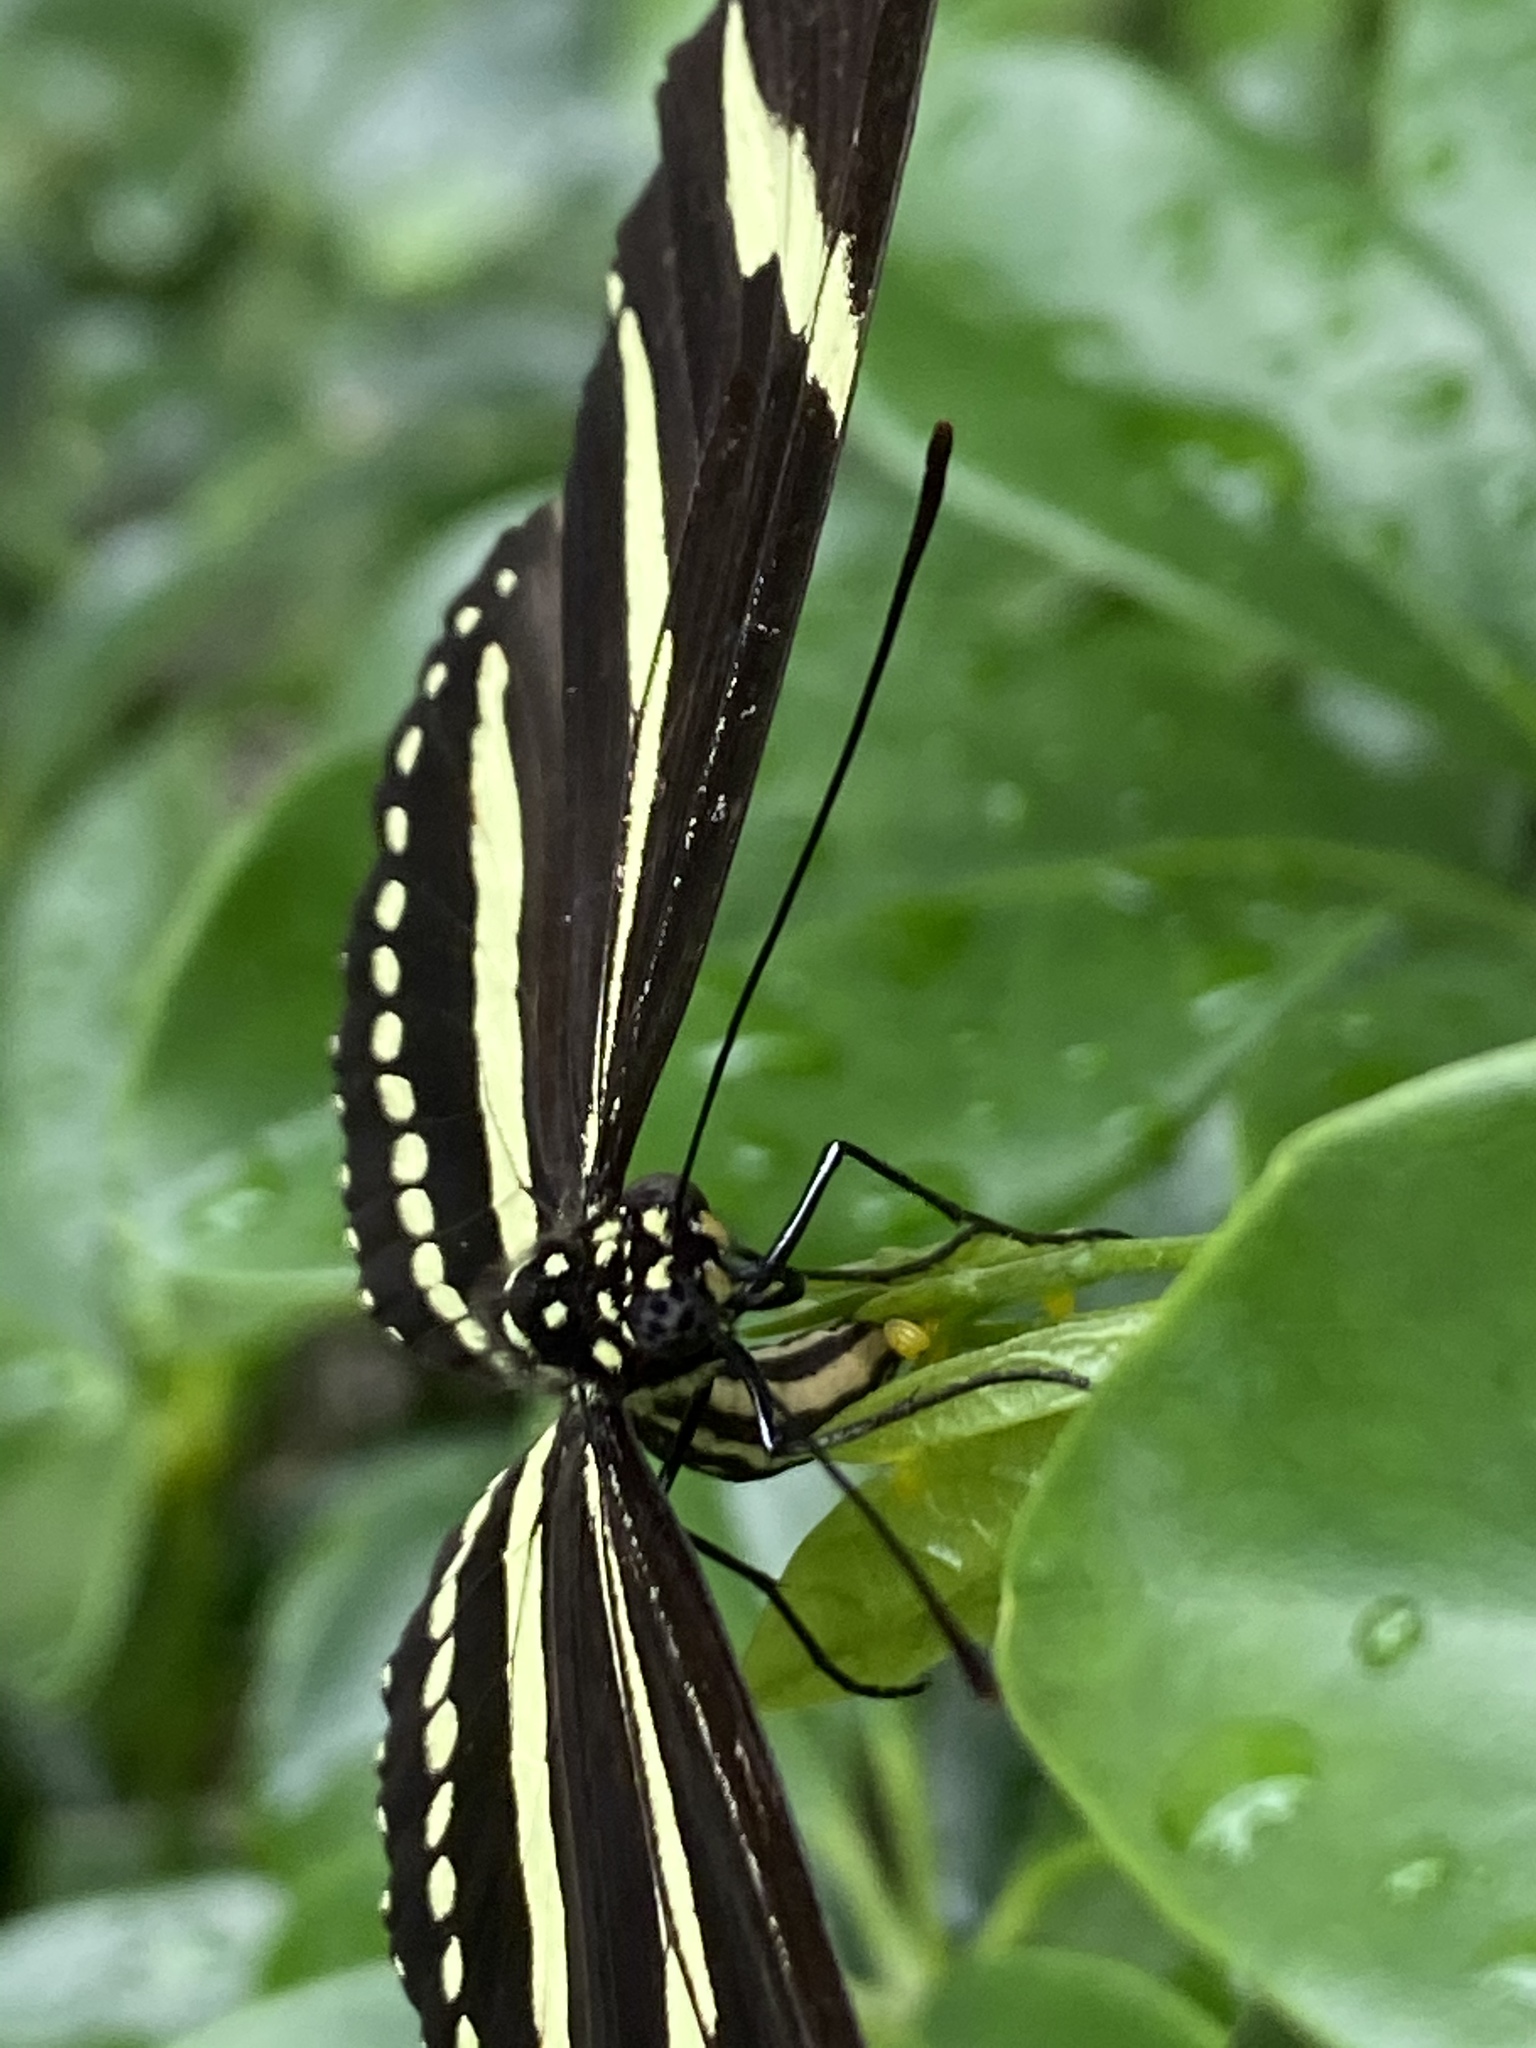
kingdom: Animalia
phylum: Arthropoda
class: Insecta
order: Lepidoptera
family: Nymphalidae
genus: Heliconius
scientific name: Heliconius charithonia
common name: Zebra long wing
